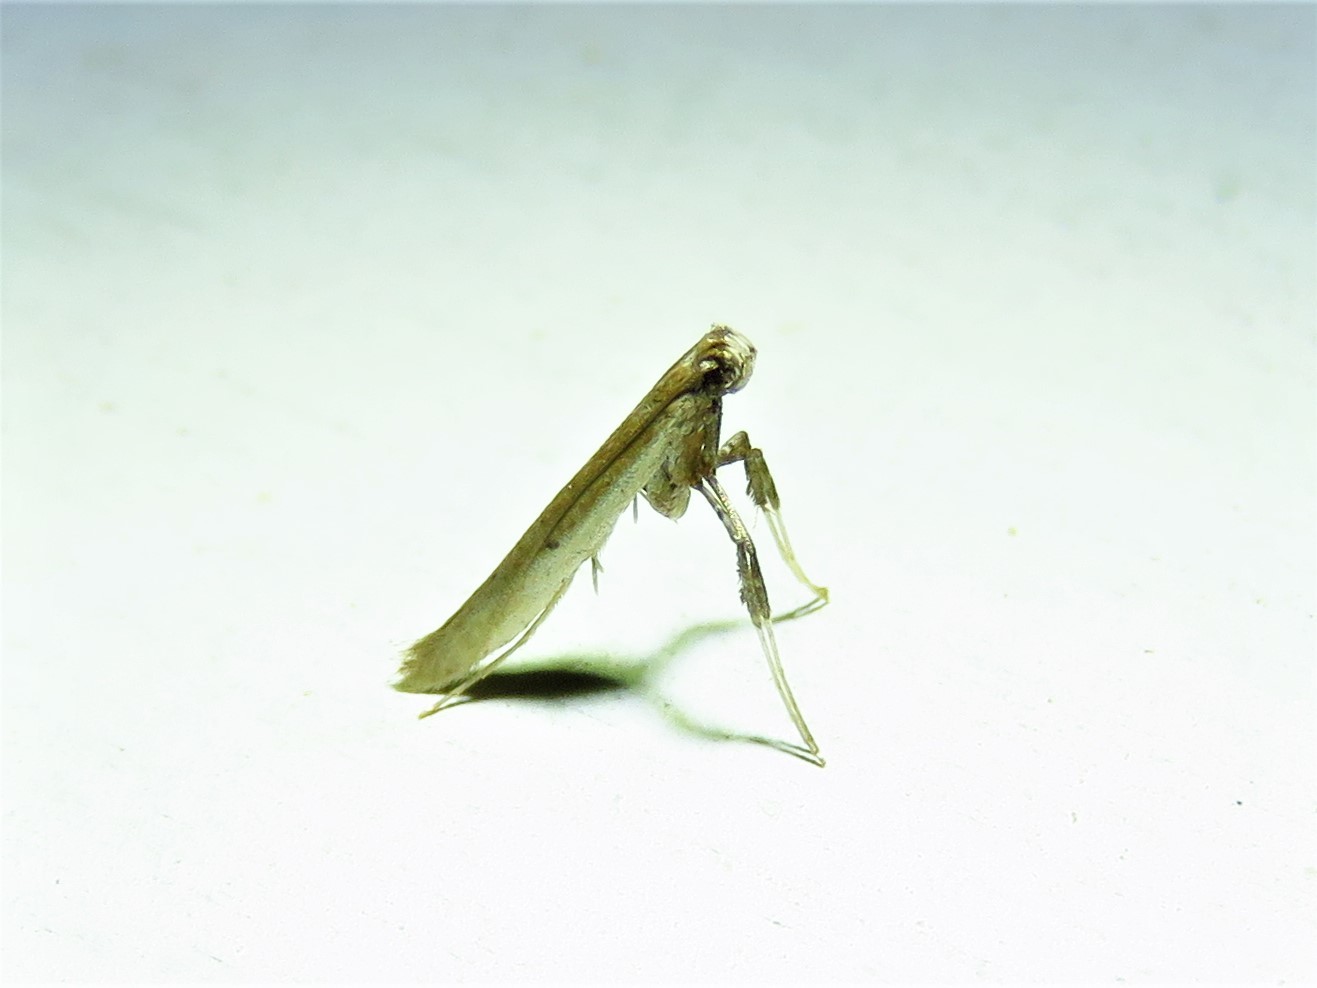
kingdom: Animalia
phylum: Arthropoda
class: Insecta
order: Lepidoptera
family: Gracillariidae
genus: Caloptilia
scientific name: Caloptilia violacella
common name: Tick-trefoil caloptilia moth
